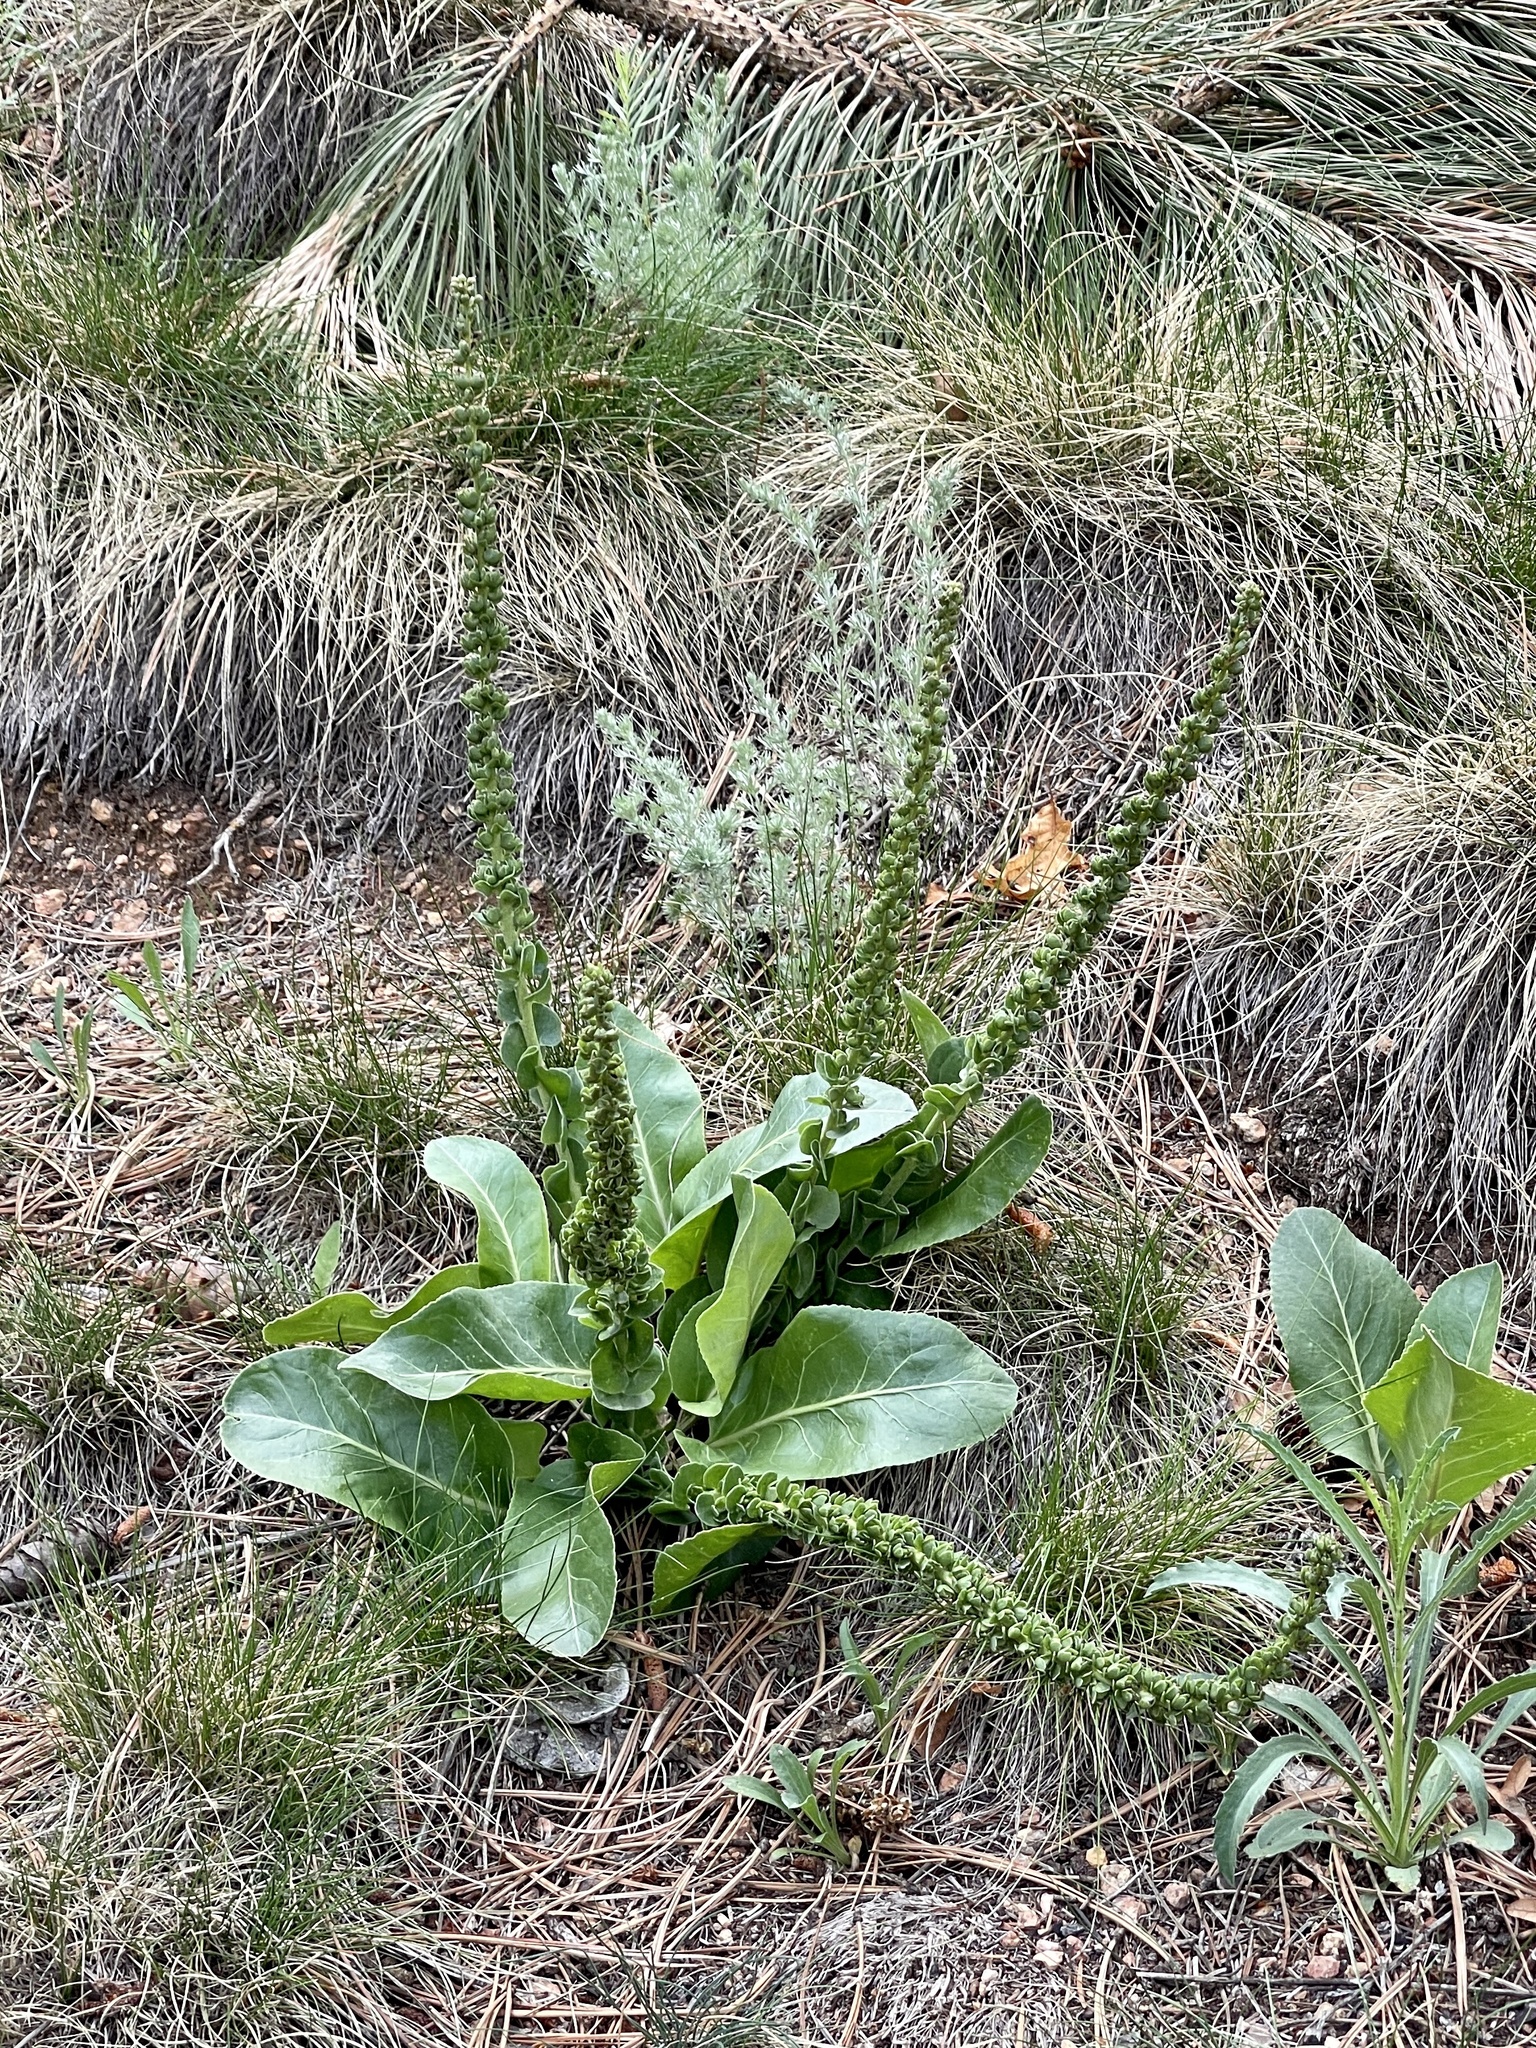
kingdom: Plantae
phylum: Tracheophyta
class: Magnoliopsida
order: Lamiales
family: Plantaginaceae
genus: Veronica
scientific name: Veronica plantaginea
